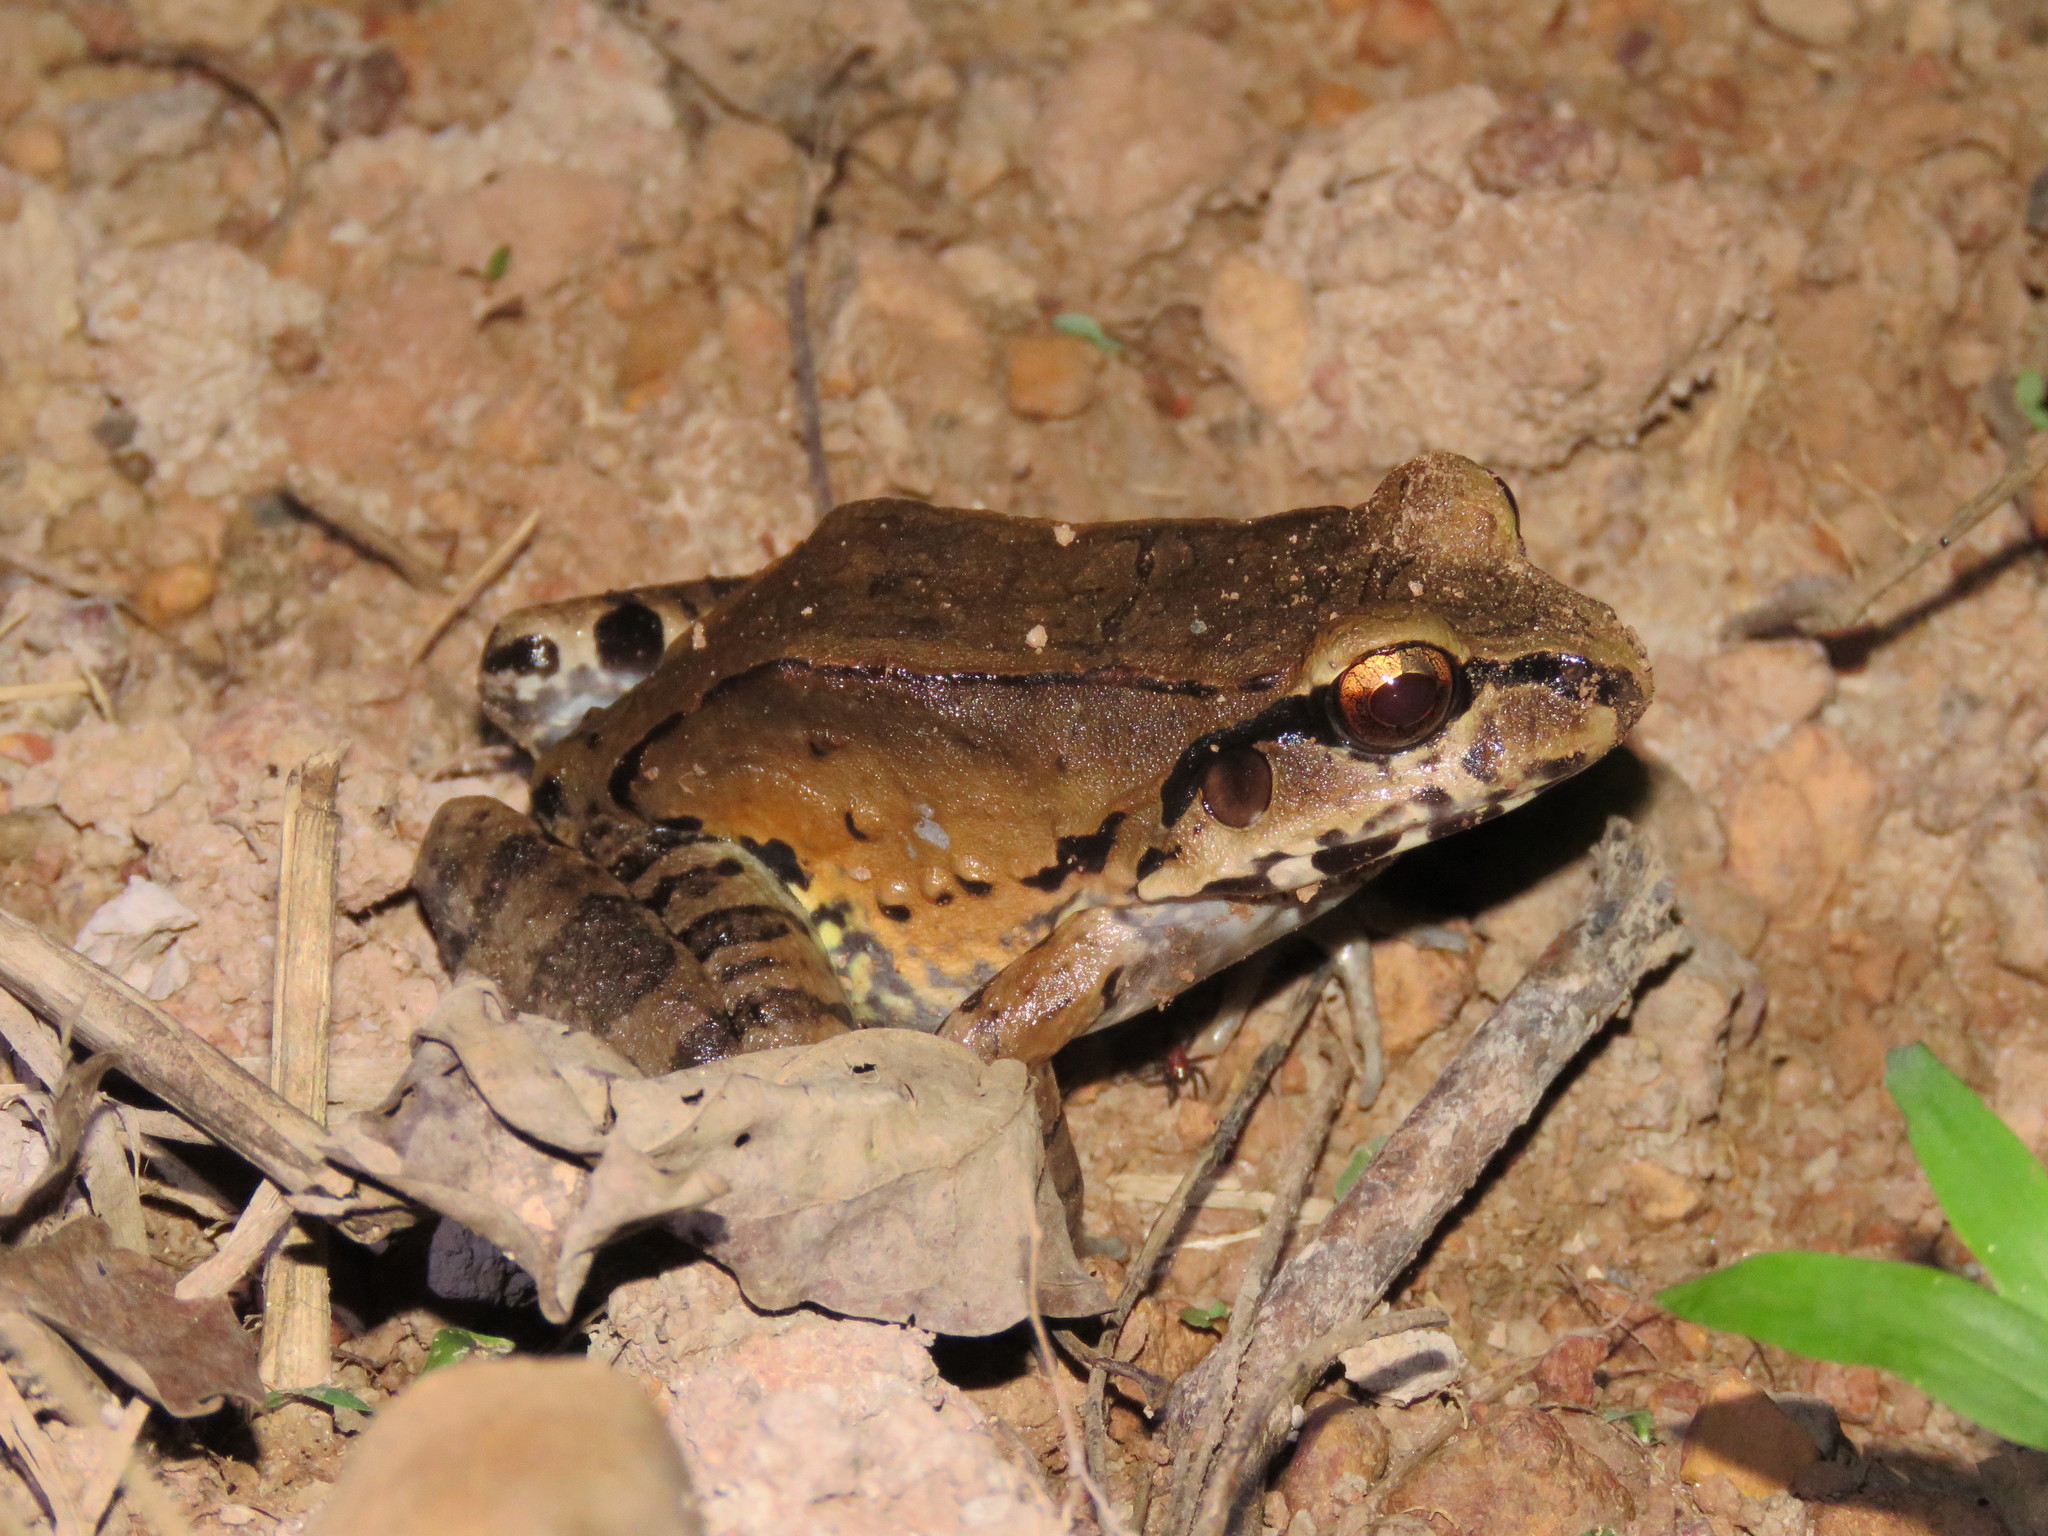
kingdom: Animalia
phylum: Chordata
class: Amphibia
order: Anura
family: Leptodactylidae
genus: Leptodactylus
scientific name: Leptodactylus pentadactylus
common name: Smoky jungle frog
